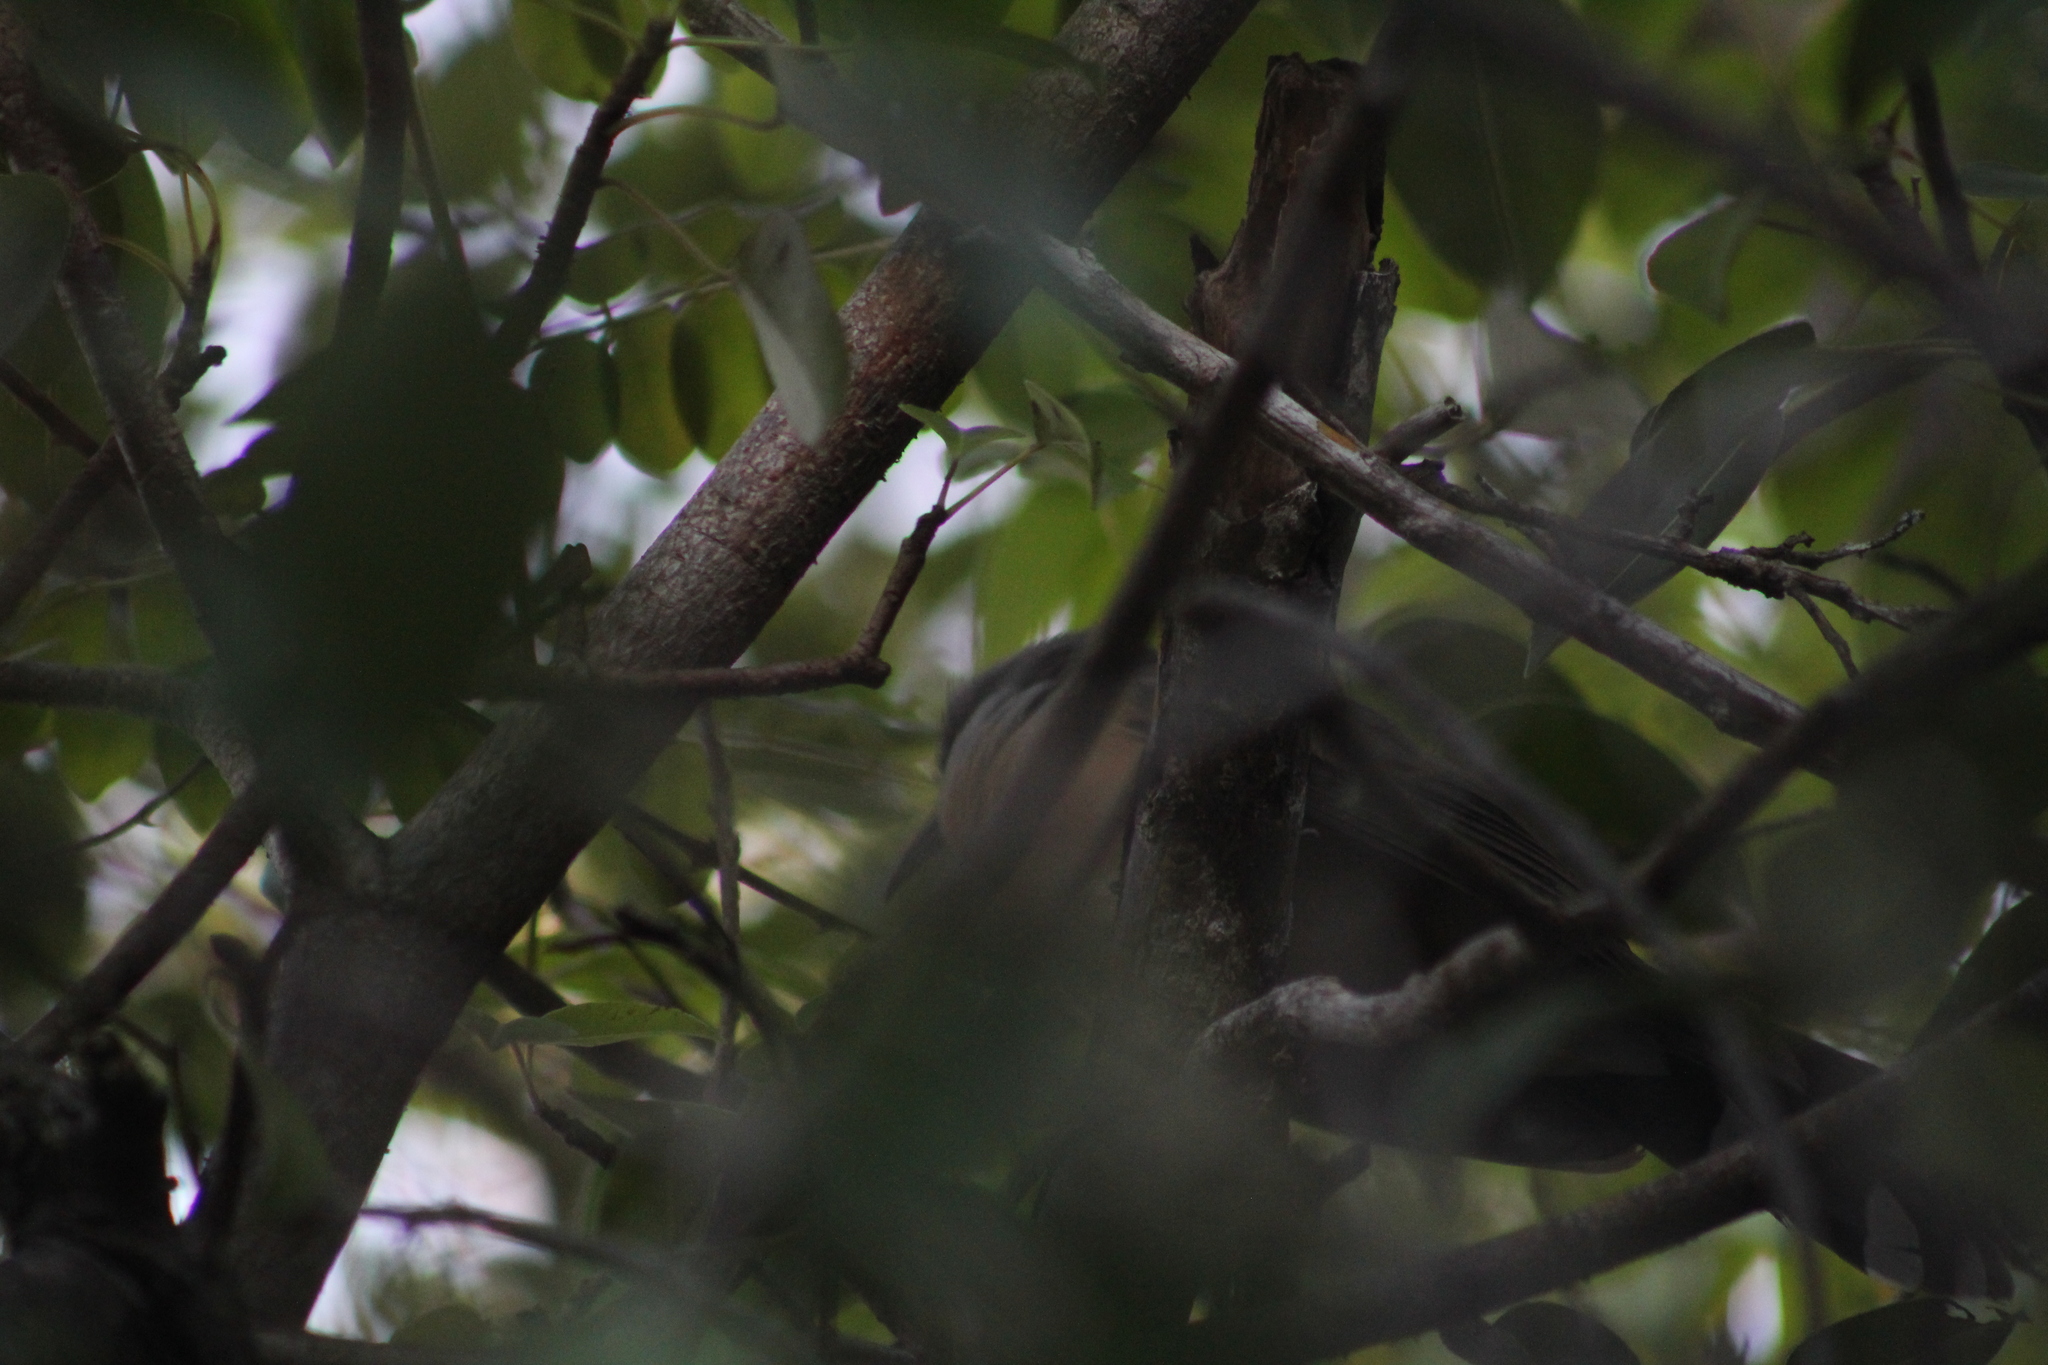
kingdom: Animalia
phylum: Chordata
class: Aves
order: Cuculiformes
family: Cuculidae
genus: Coccyzus
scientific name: Coccyzus melacoryphus
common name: Dark-billed cuckoo
